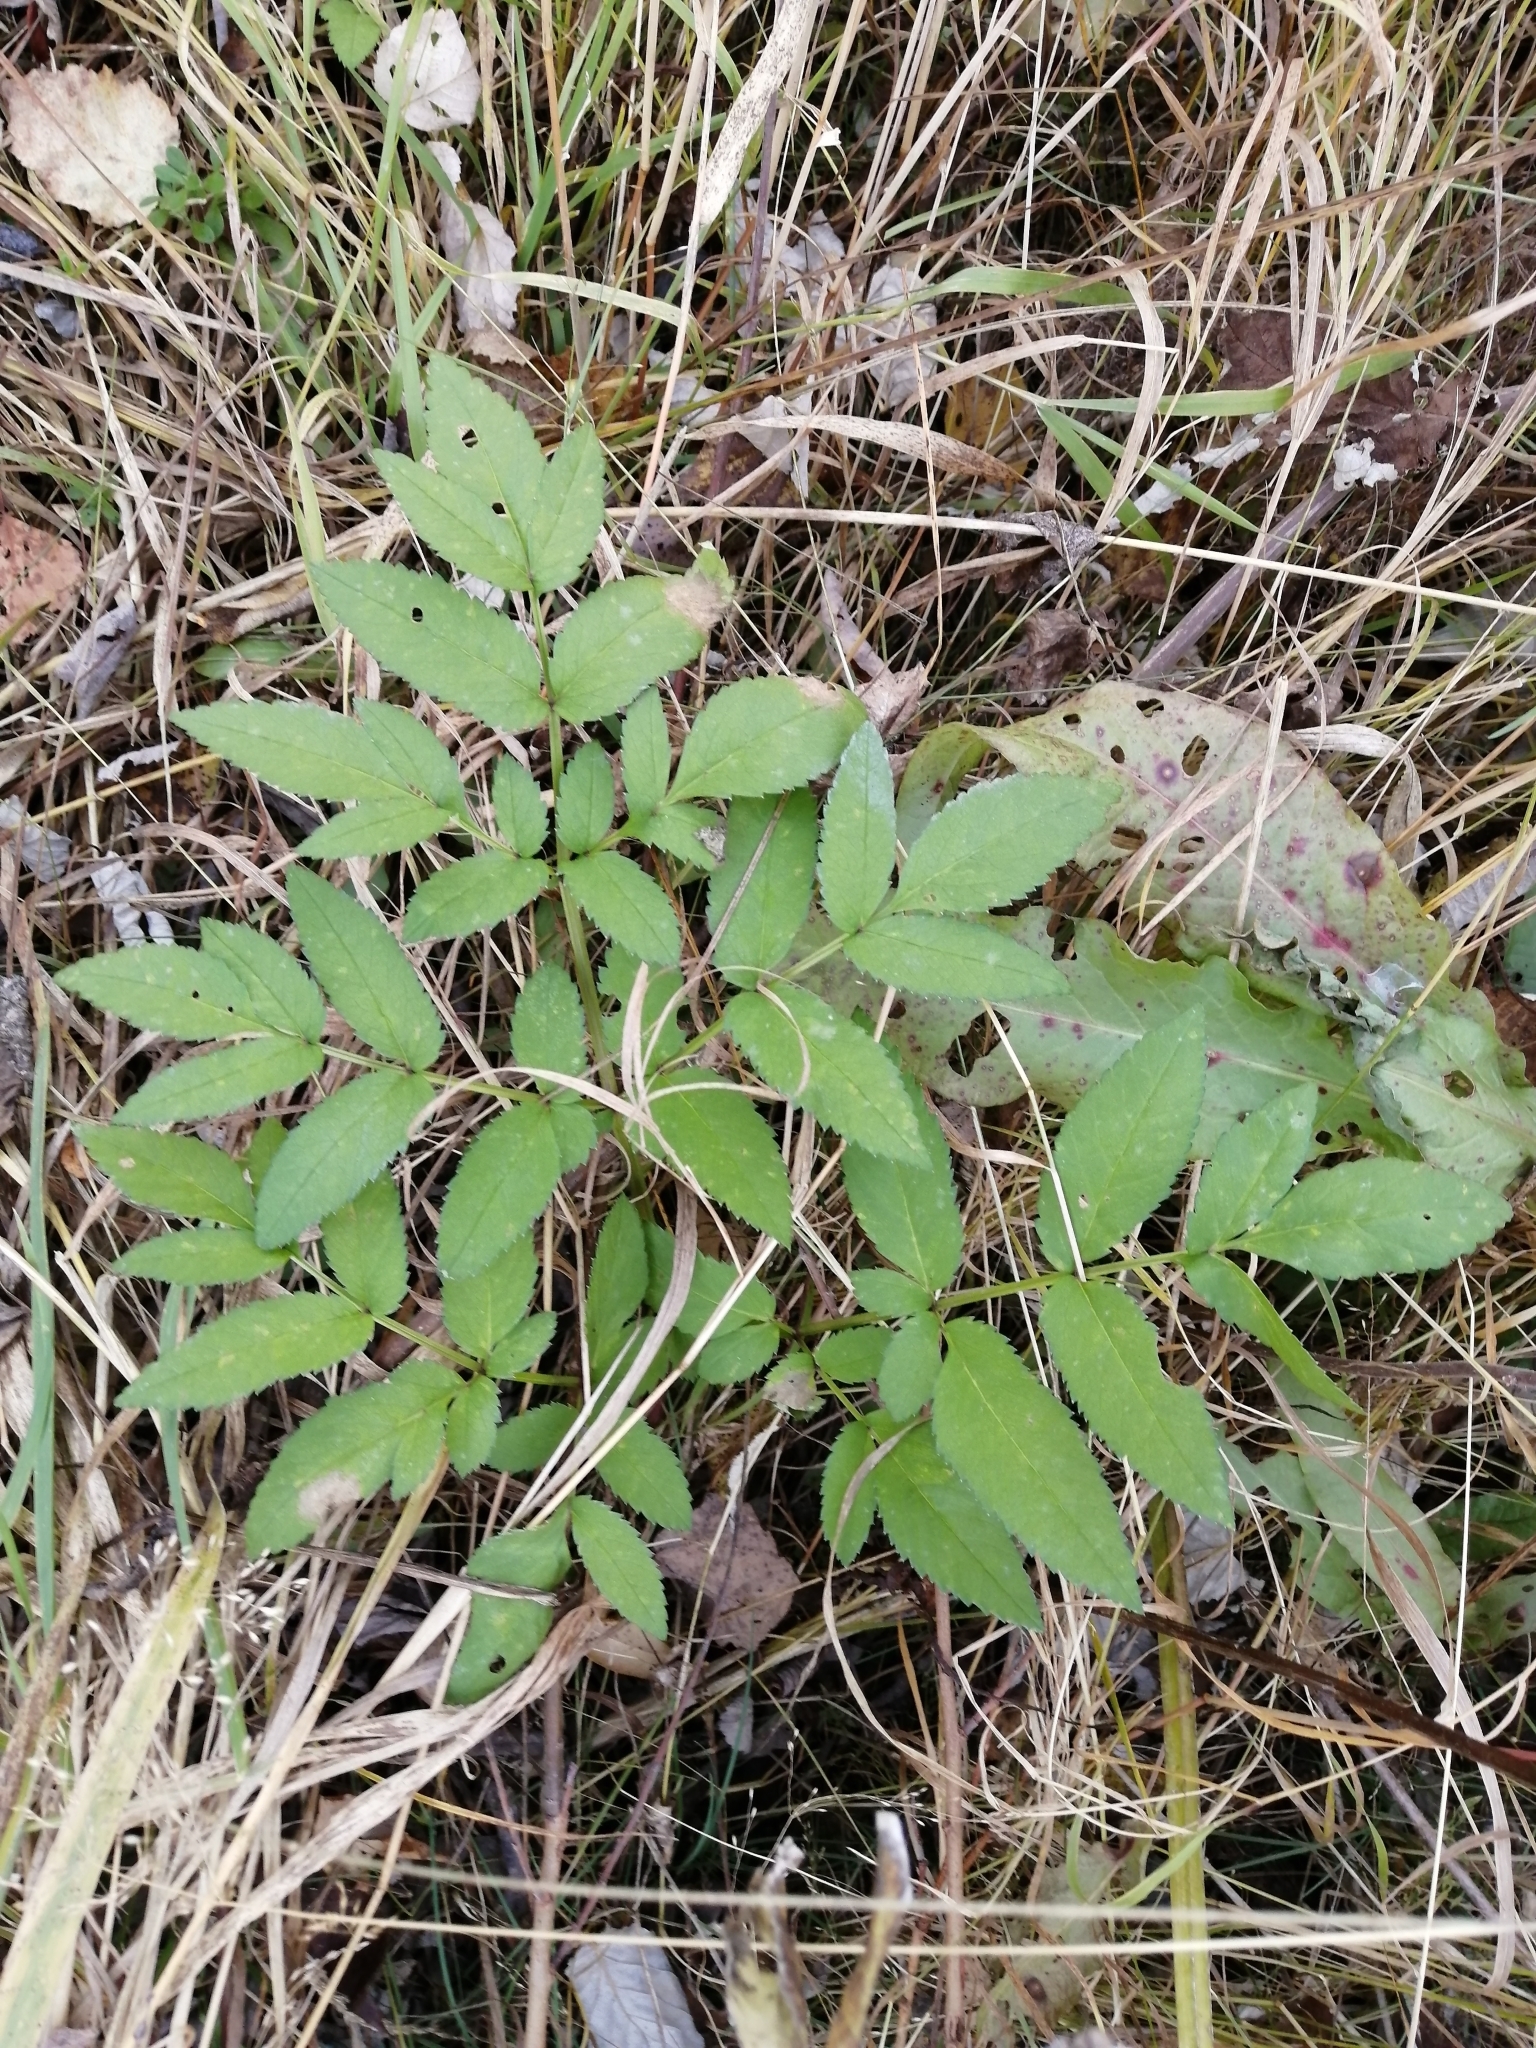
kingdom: Plantae
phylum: Tracheophyta
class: Magnoliopsida
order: Apiales
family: Apiaceae
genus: Angelica
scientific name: Angelica sylvestris
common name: Wild angelica
